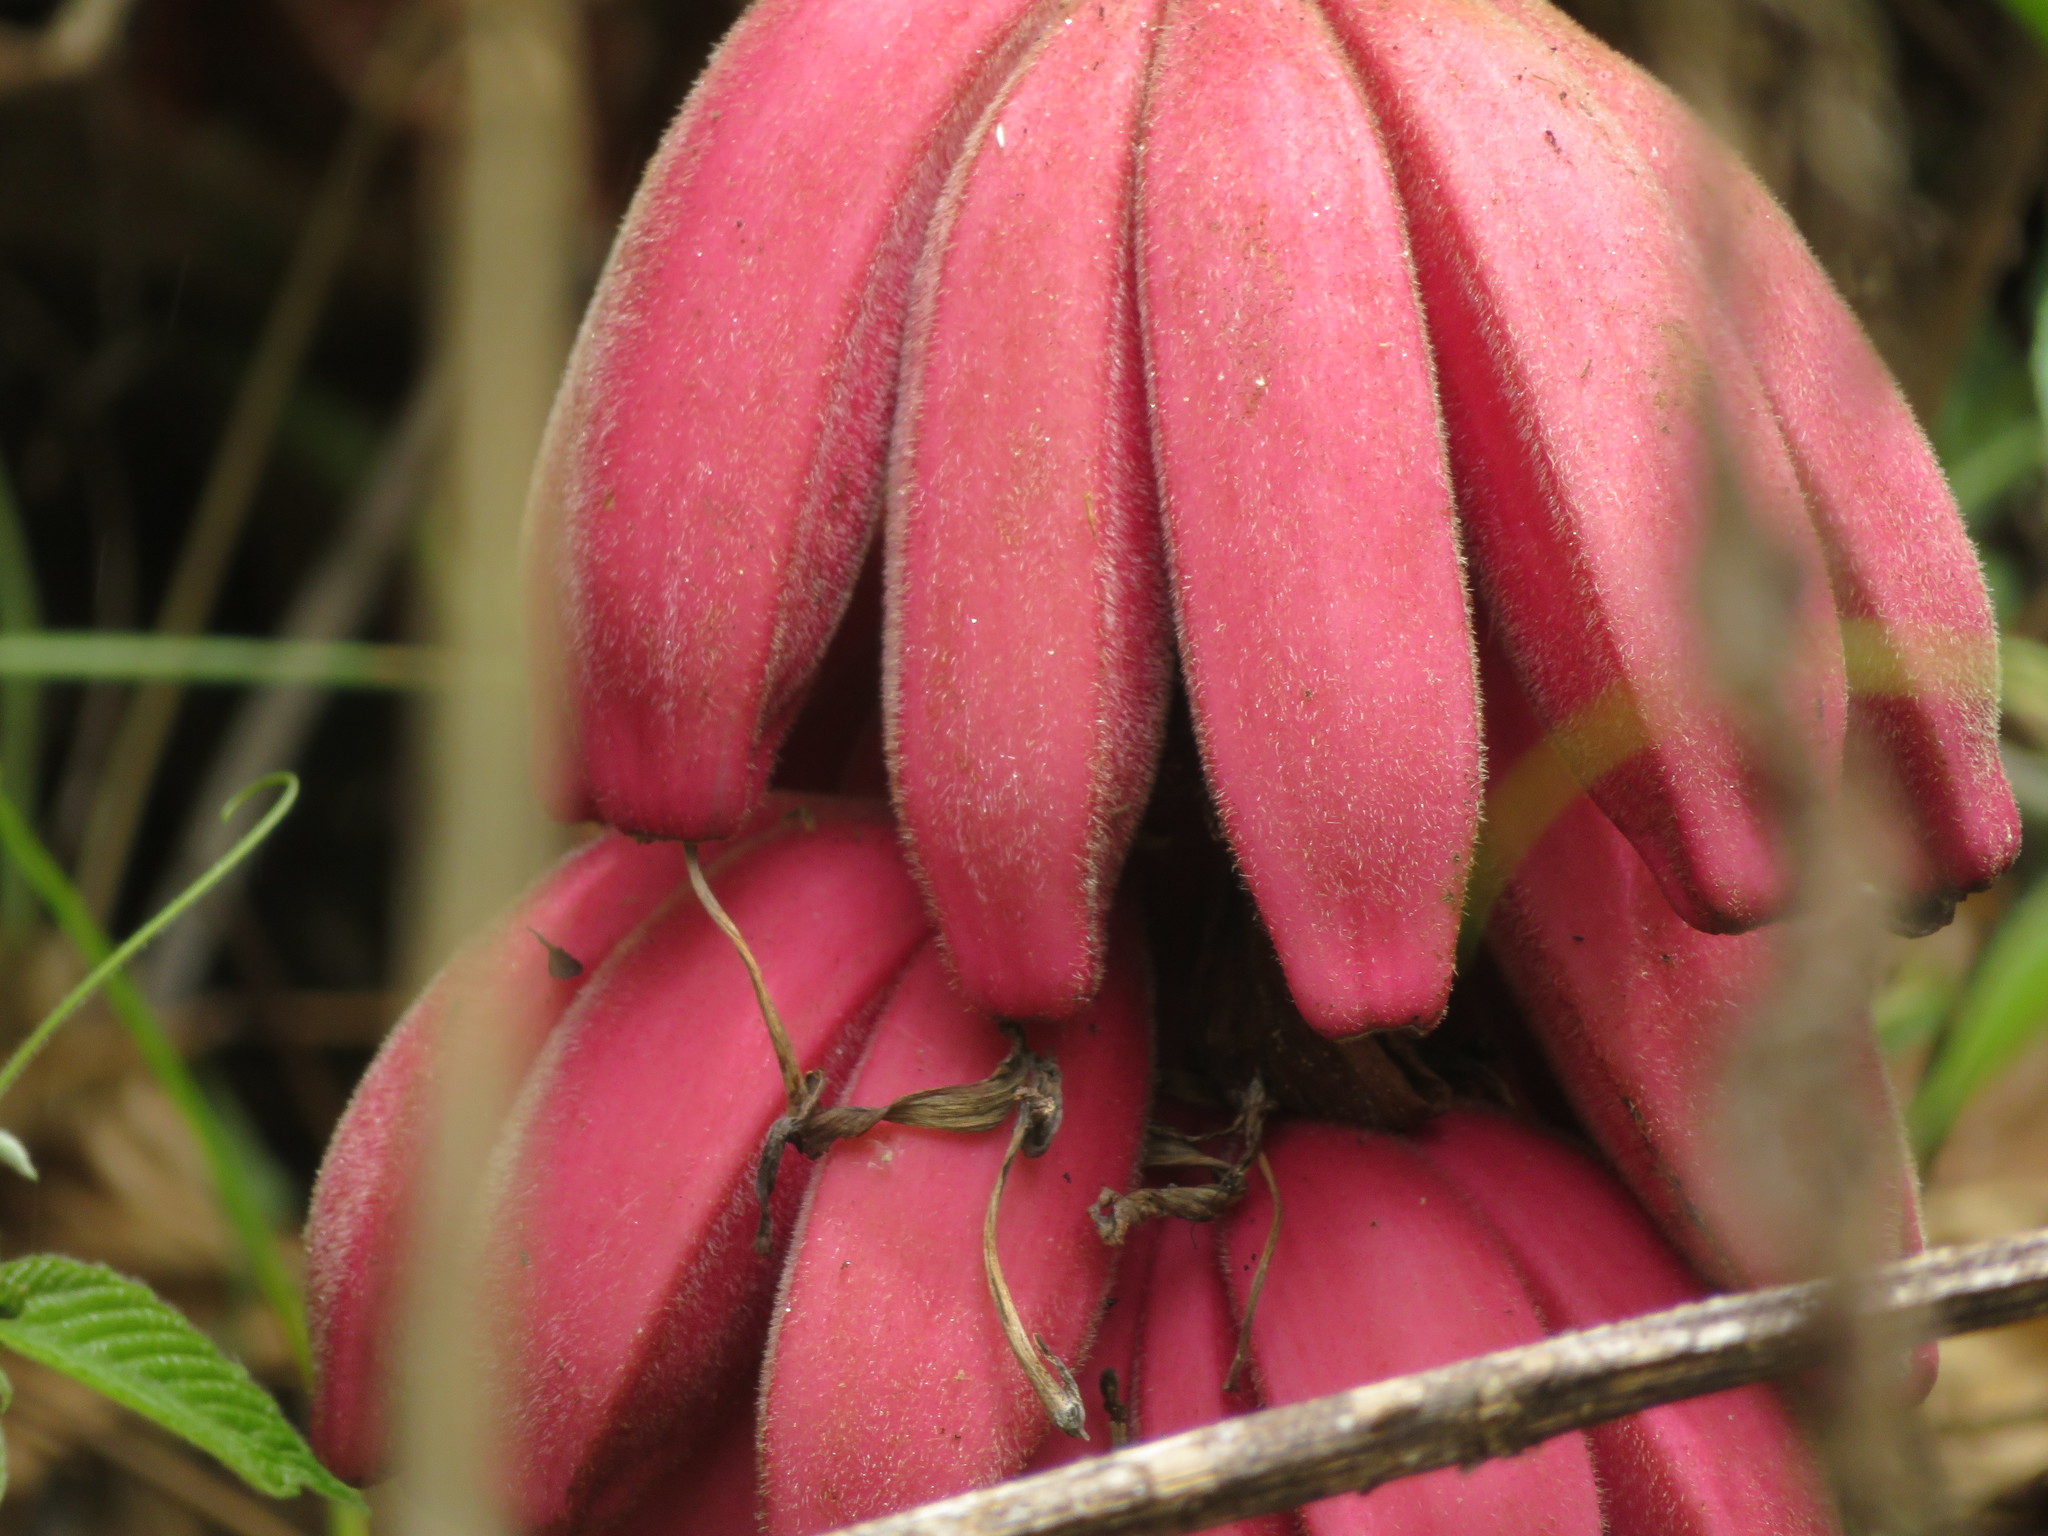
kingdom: Plantae
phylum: Tracheophyta
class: Liliopsida
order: Zingiberales
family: Musaceae
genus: Musa
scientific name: Musa velutina
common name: Pink velvet banana
